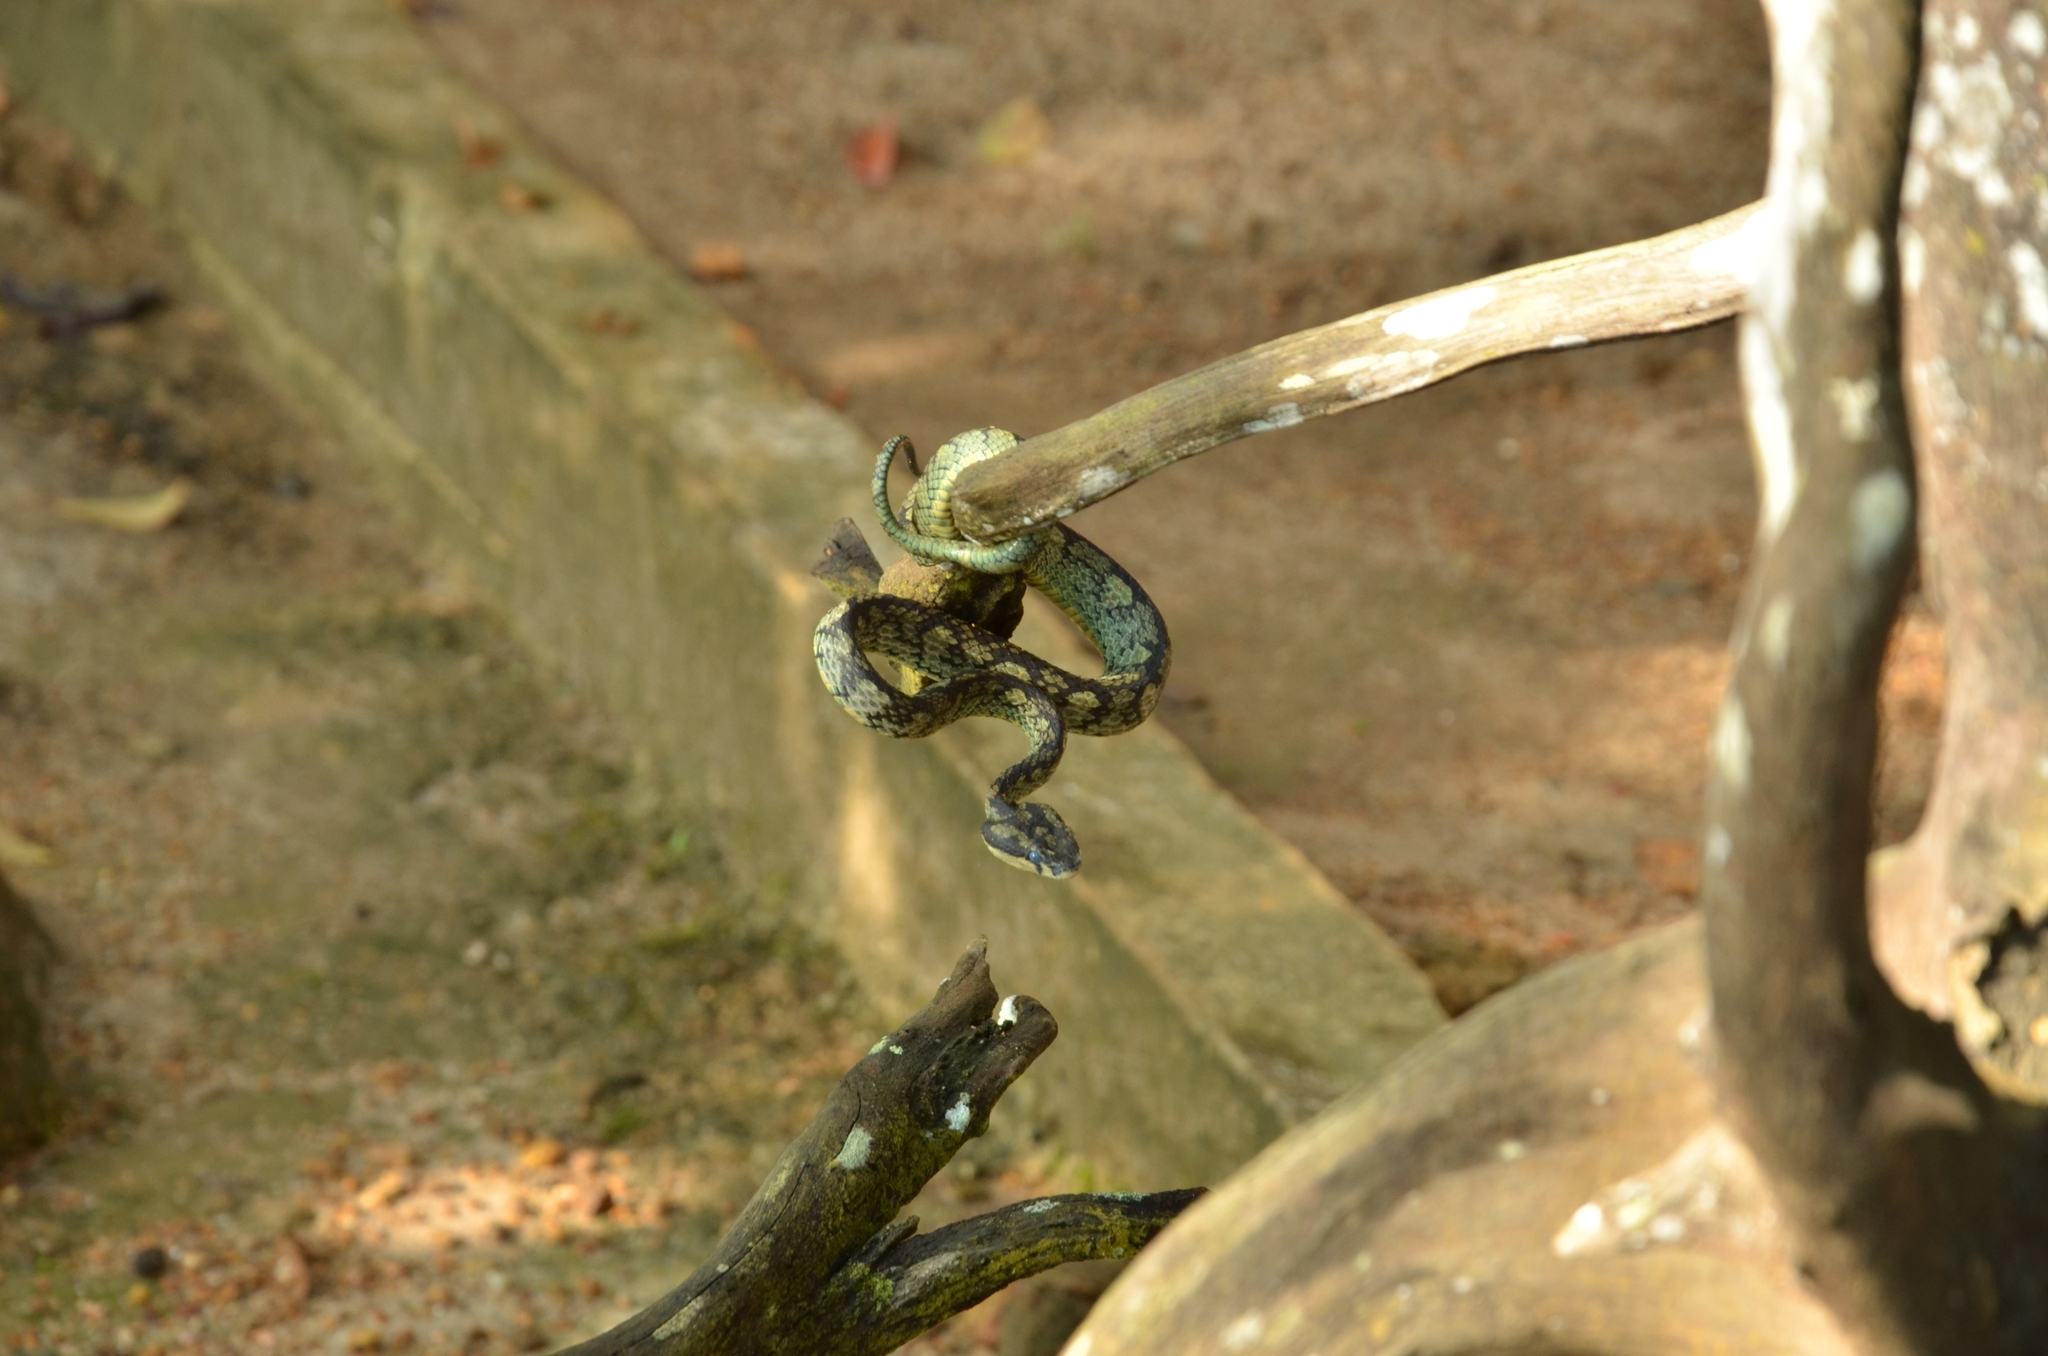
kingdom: Animalia
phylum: Chordata
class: Squamata
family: Viperidae
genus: Craspedocephalus
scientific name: Craspedocephalus trigonocephalus
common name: Ceylon pit viper
